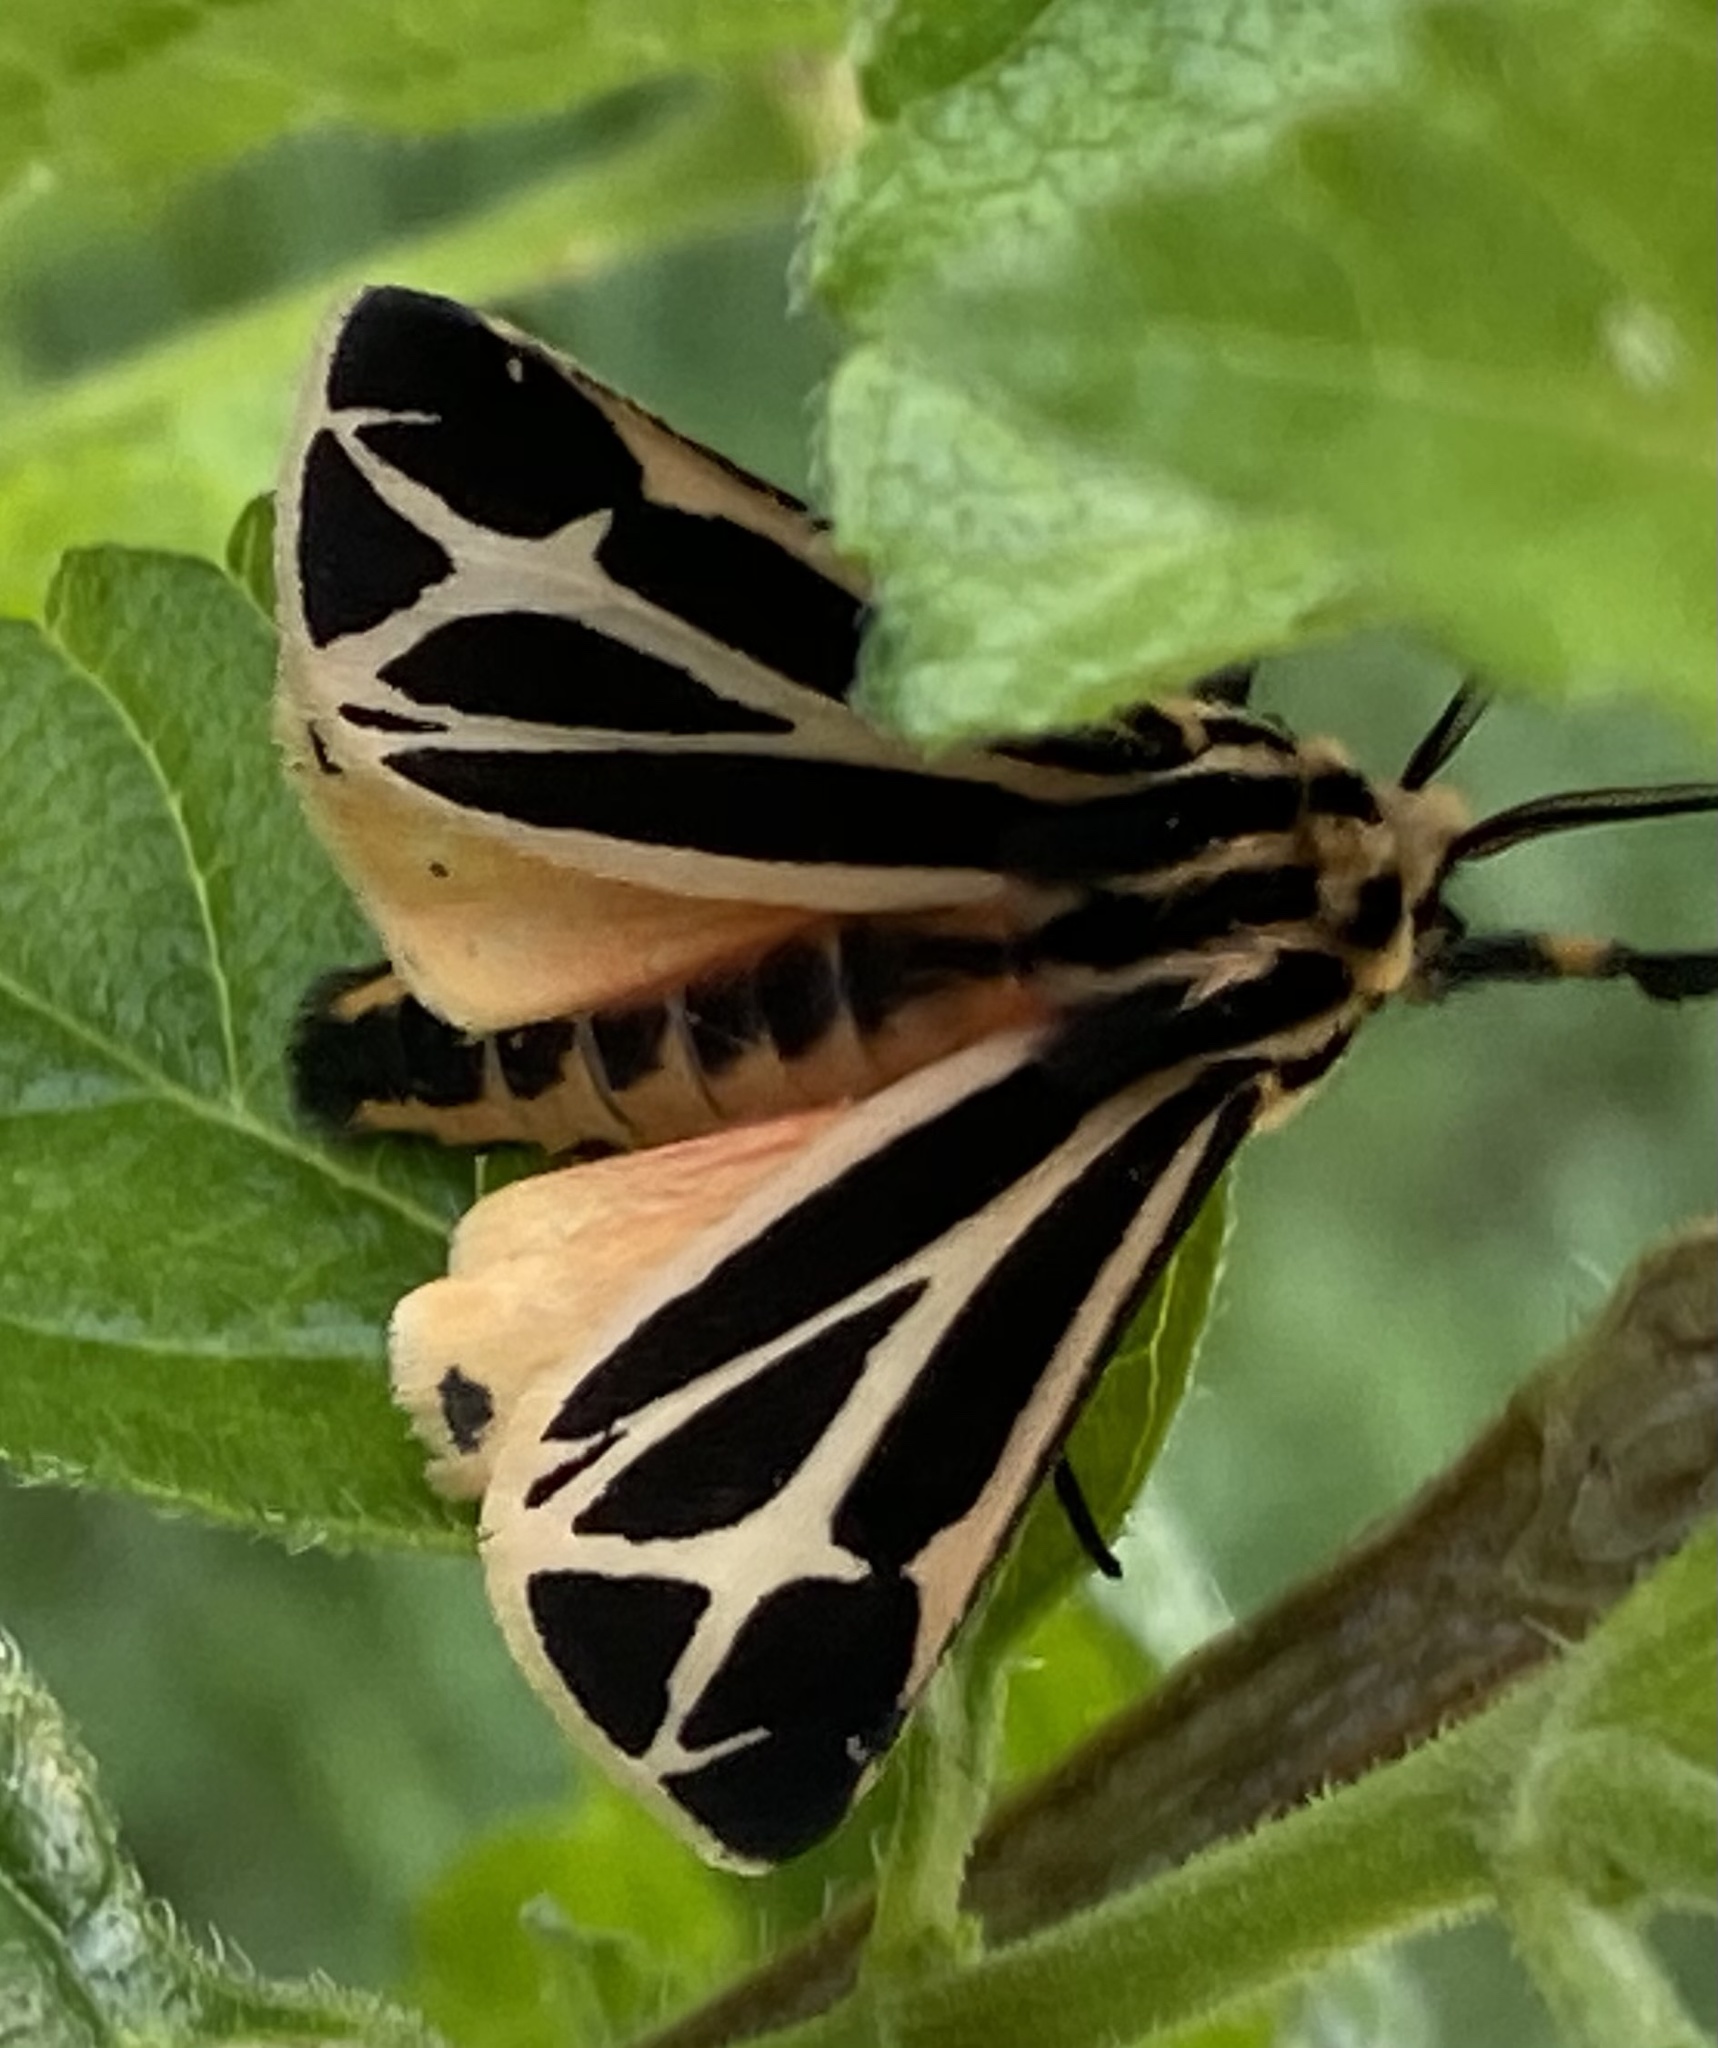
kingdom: Animalia
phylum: Arthropoda
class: Insecta
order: Lepidoptera
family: Erebidae
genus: Apantesis
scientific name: Apantesis phalerata
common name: Harnessed tiger moth
